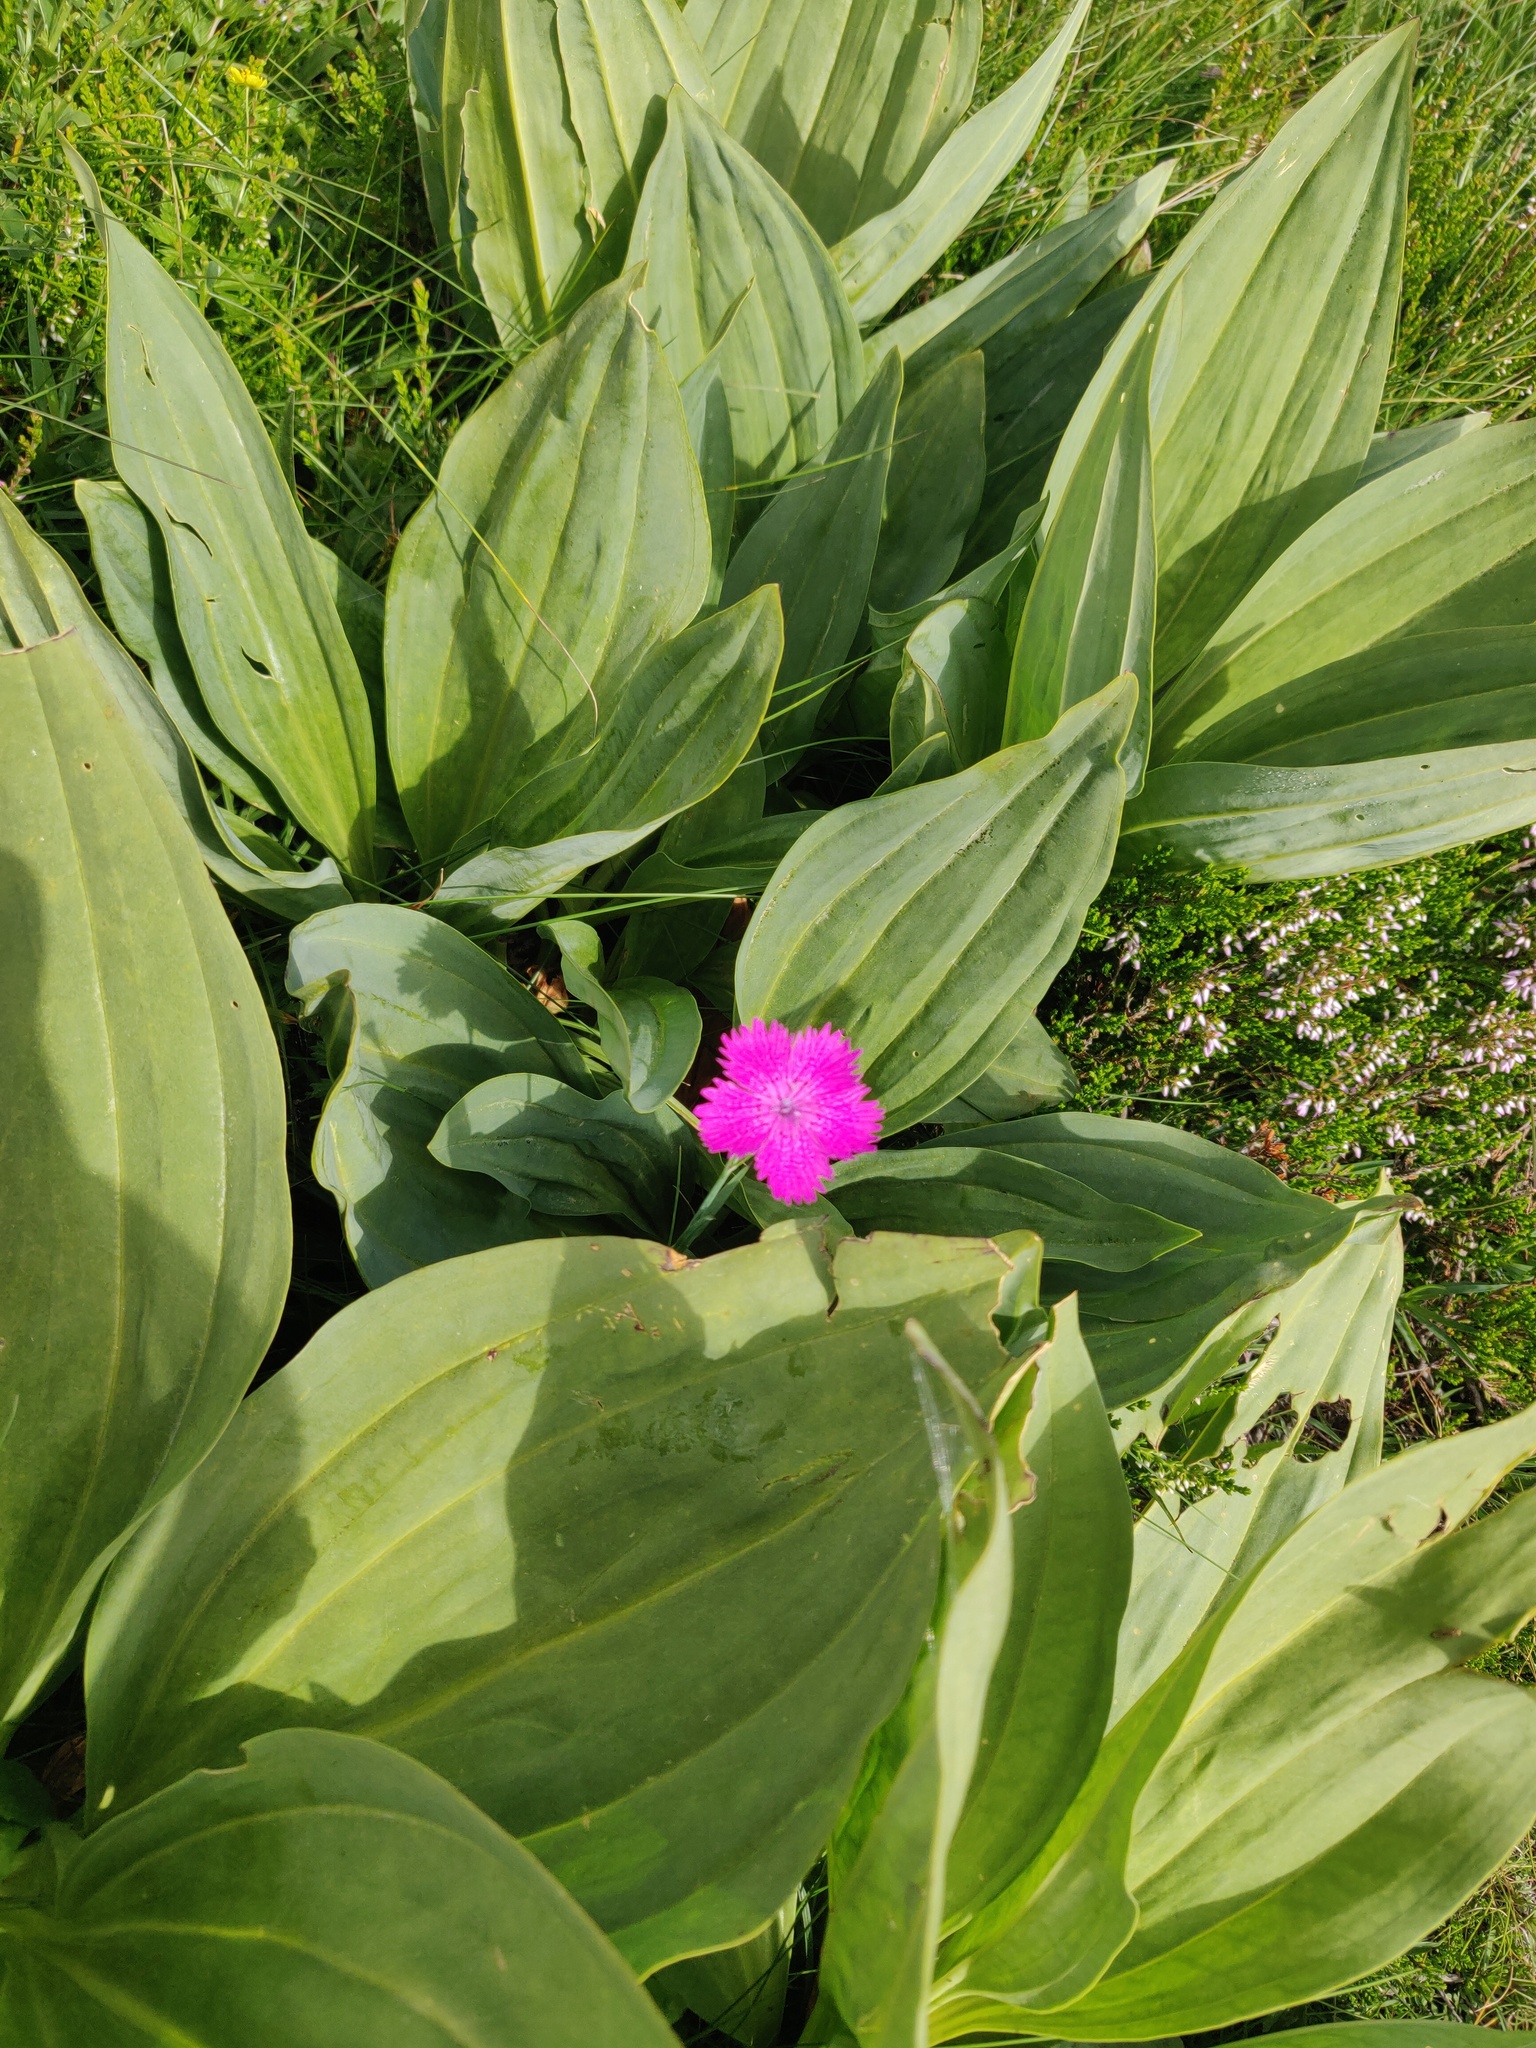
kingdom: Plantae
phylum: Tracheophyta
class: Magnoliopsida
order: Caryophyllales
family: Caryophyllaceae
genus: Dianthus
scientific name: Dianthus seguieri
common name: Ragged pink
